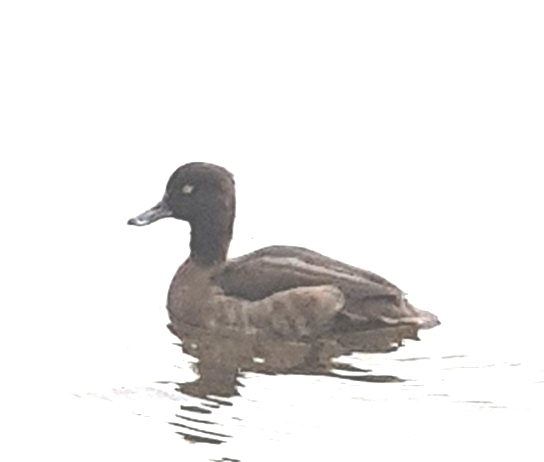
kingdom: Animalia
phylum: Chordata
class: Aves
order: Anseriformes
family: Anatidae
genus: Aythya
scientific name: Aythya fuligula
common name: Tufted duck
